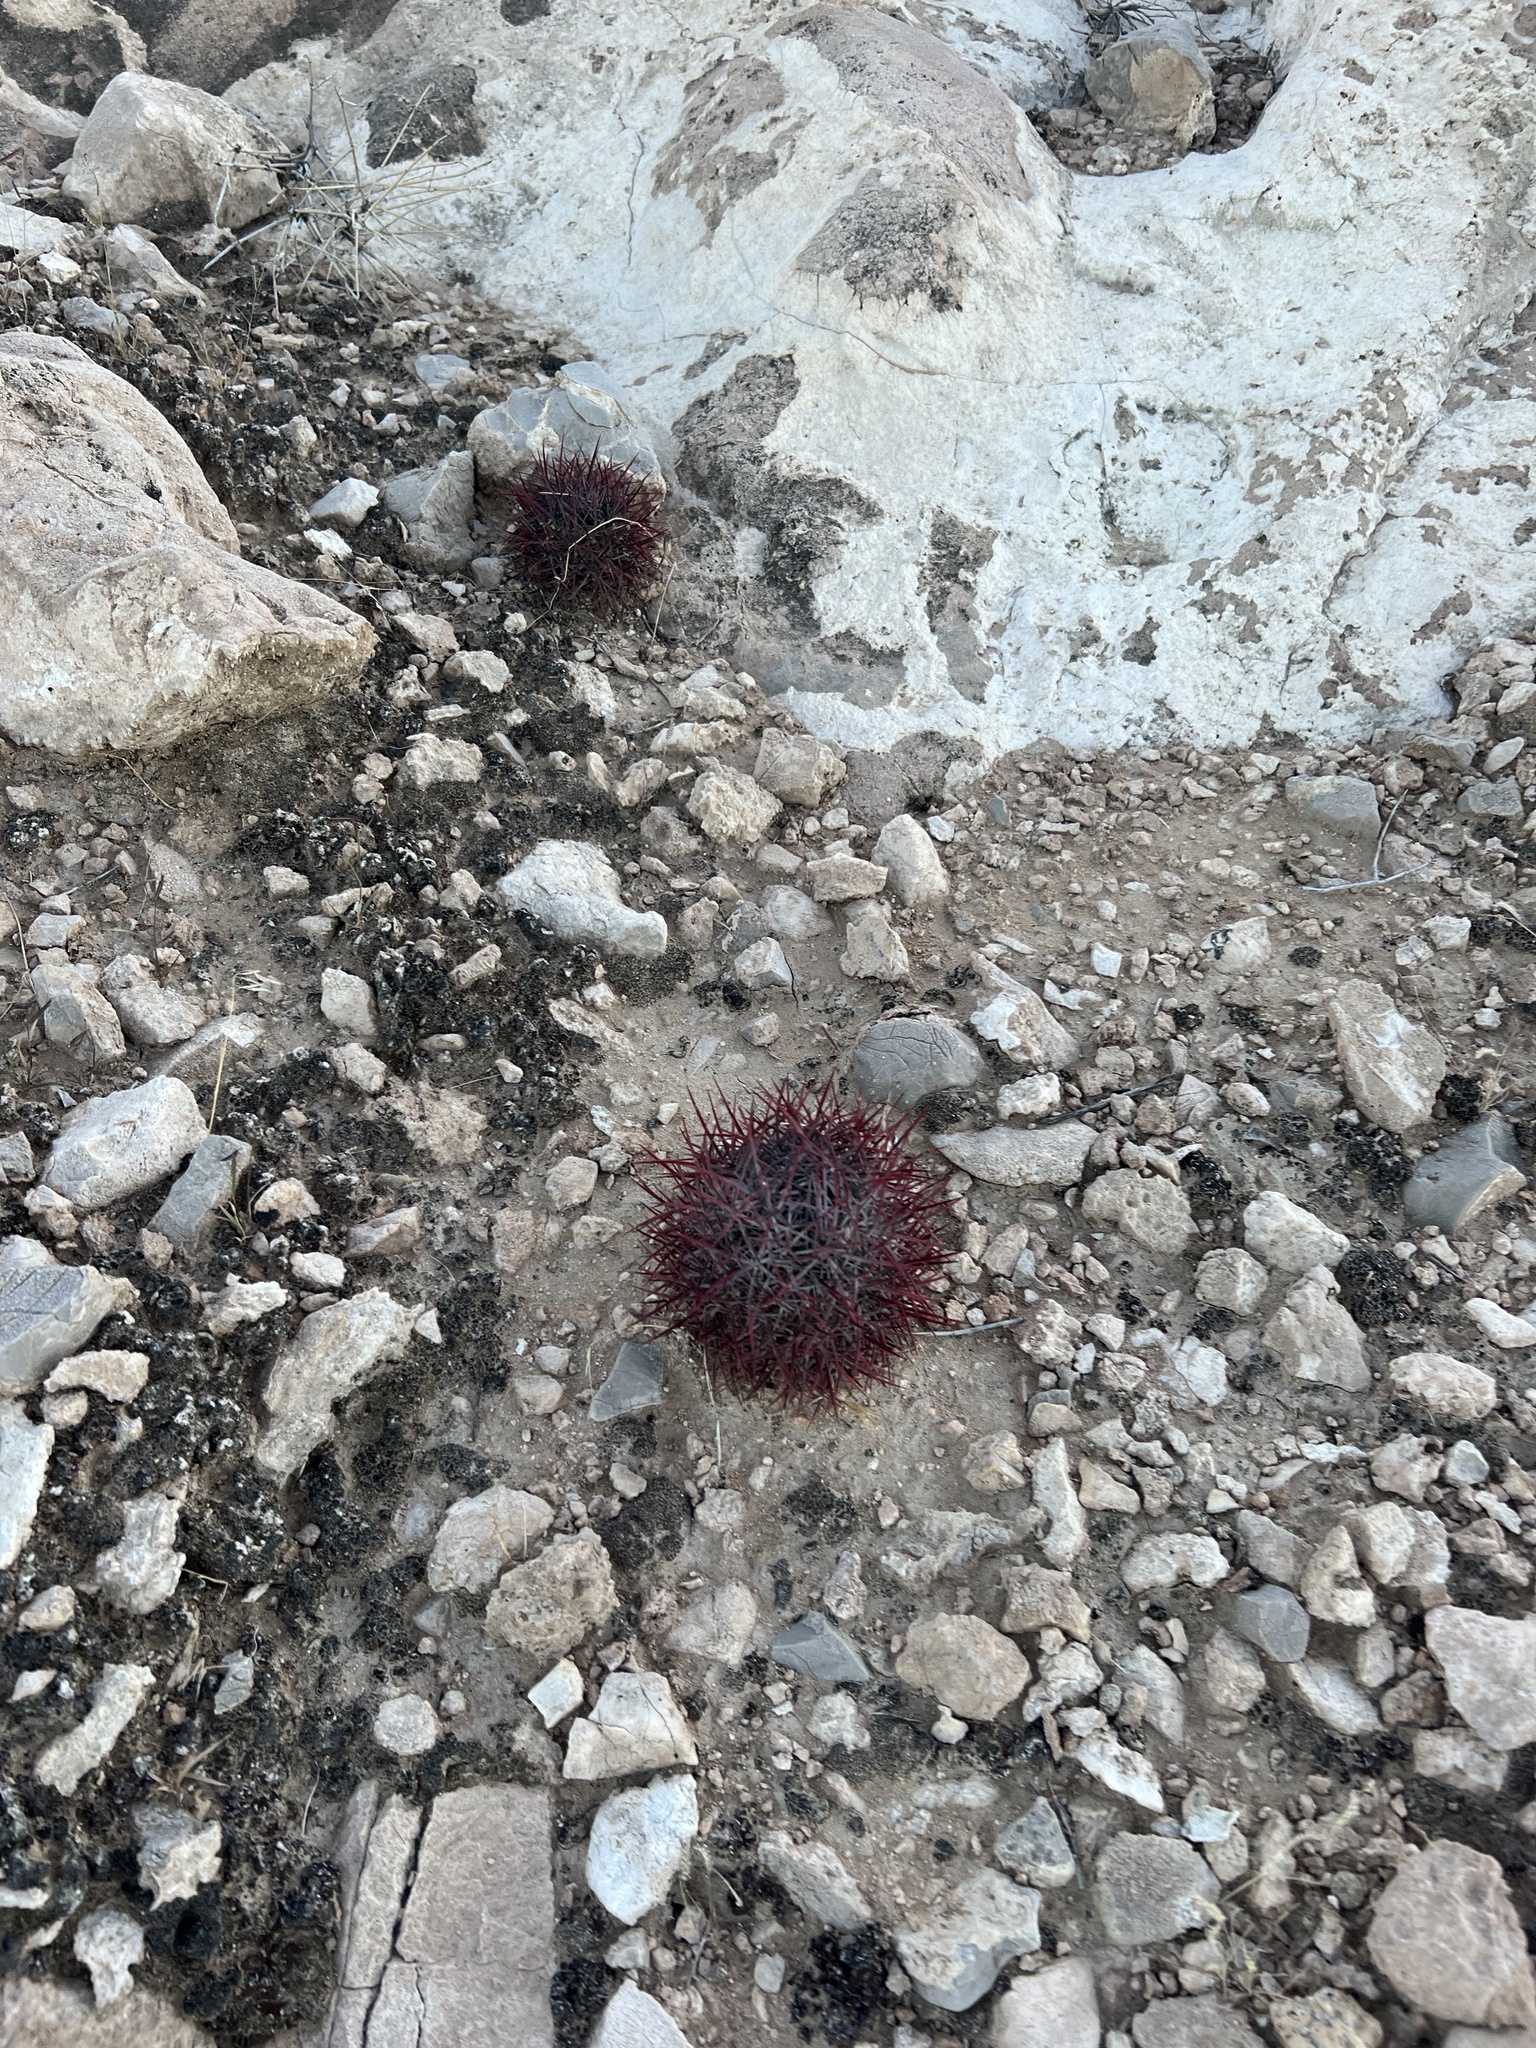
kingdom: Plantae
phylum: Tracheophyta
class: Magnoliopsida
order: Caryophyllales
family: Cactaceae
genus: Sclerocactus
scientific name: Sclerocactus johnsonii
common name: Eight-spine fishhook cactus
